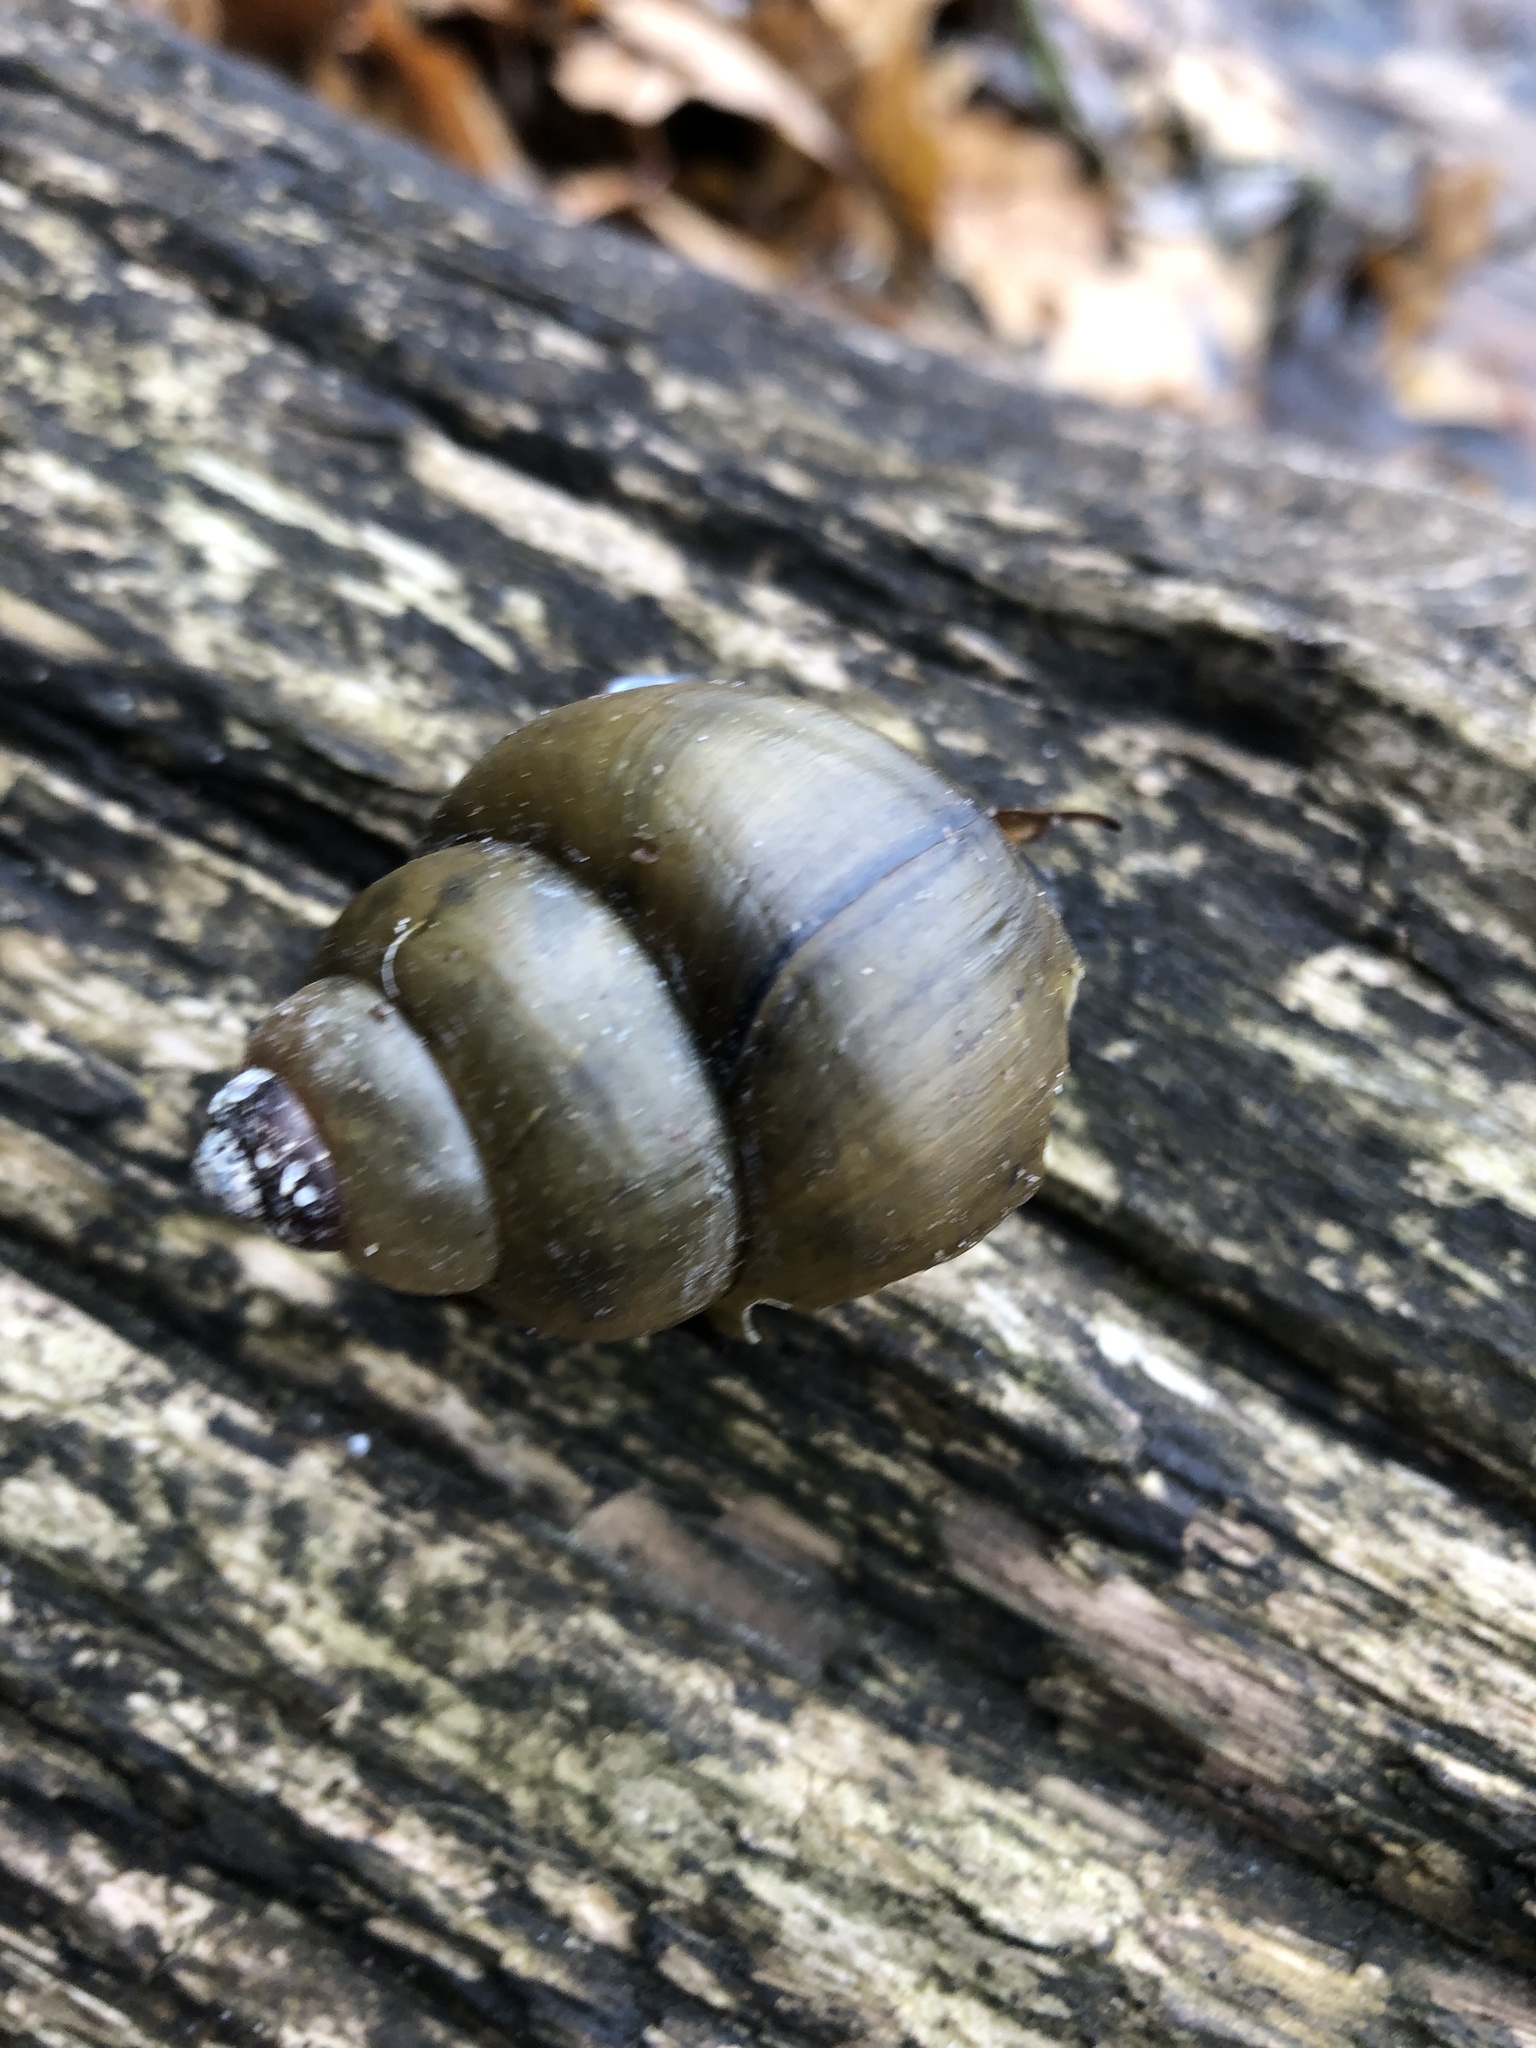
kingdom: Animalia
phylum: Mollusca
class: Gastropoda
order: Architaenioglossa
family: Viviparidae
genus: Cipangopaludina
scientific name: Cipangopaludina chinensis
